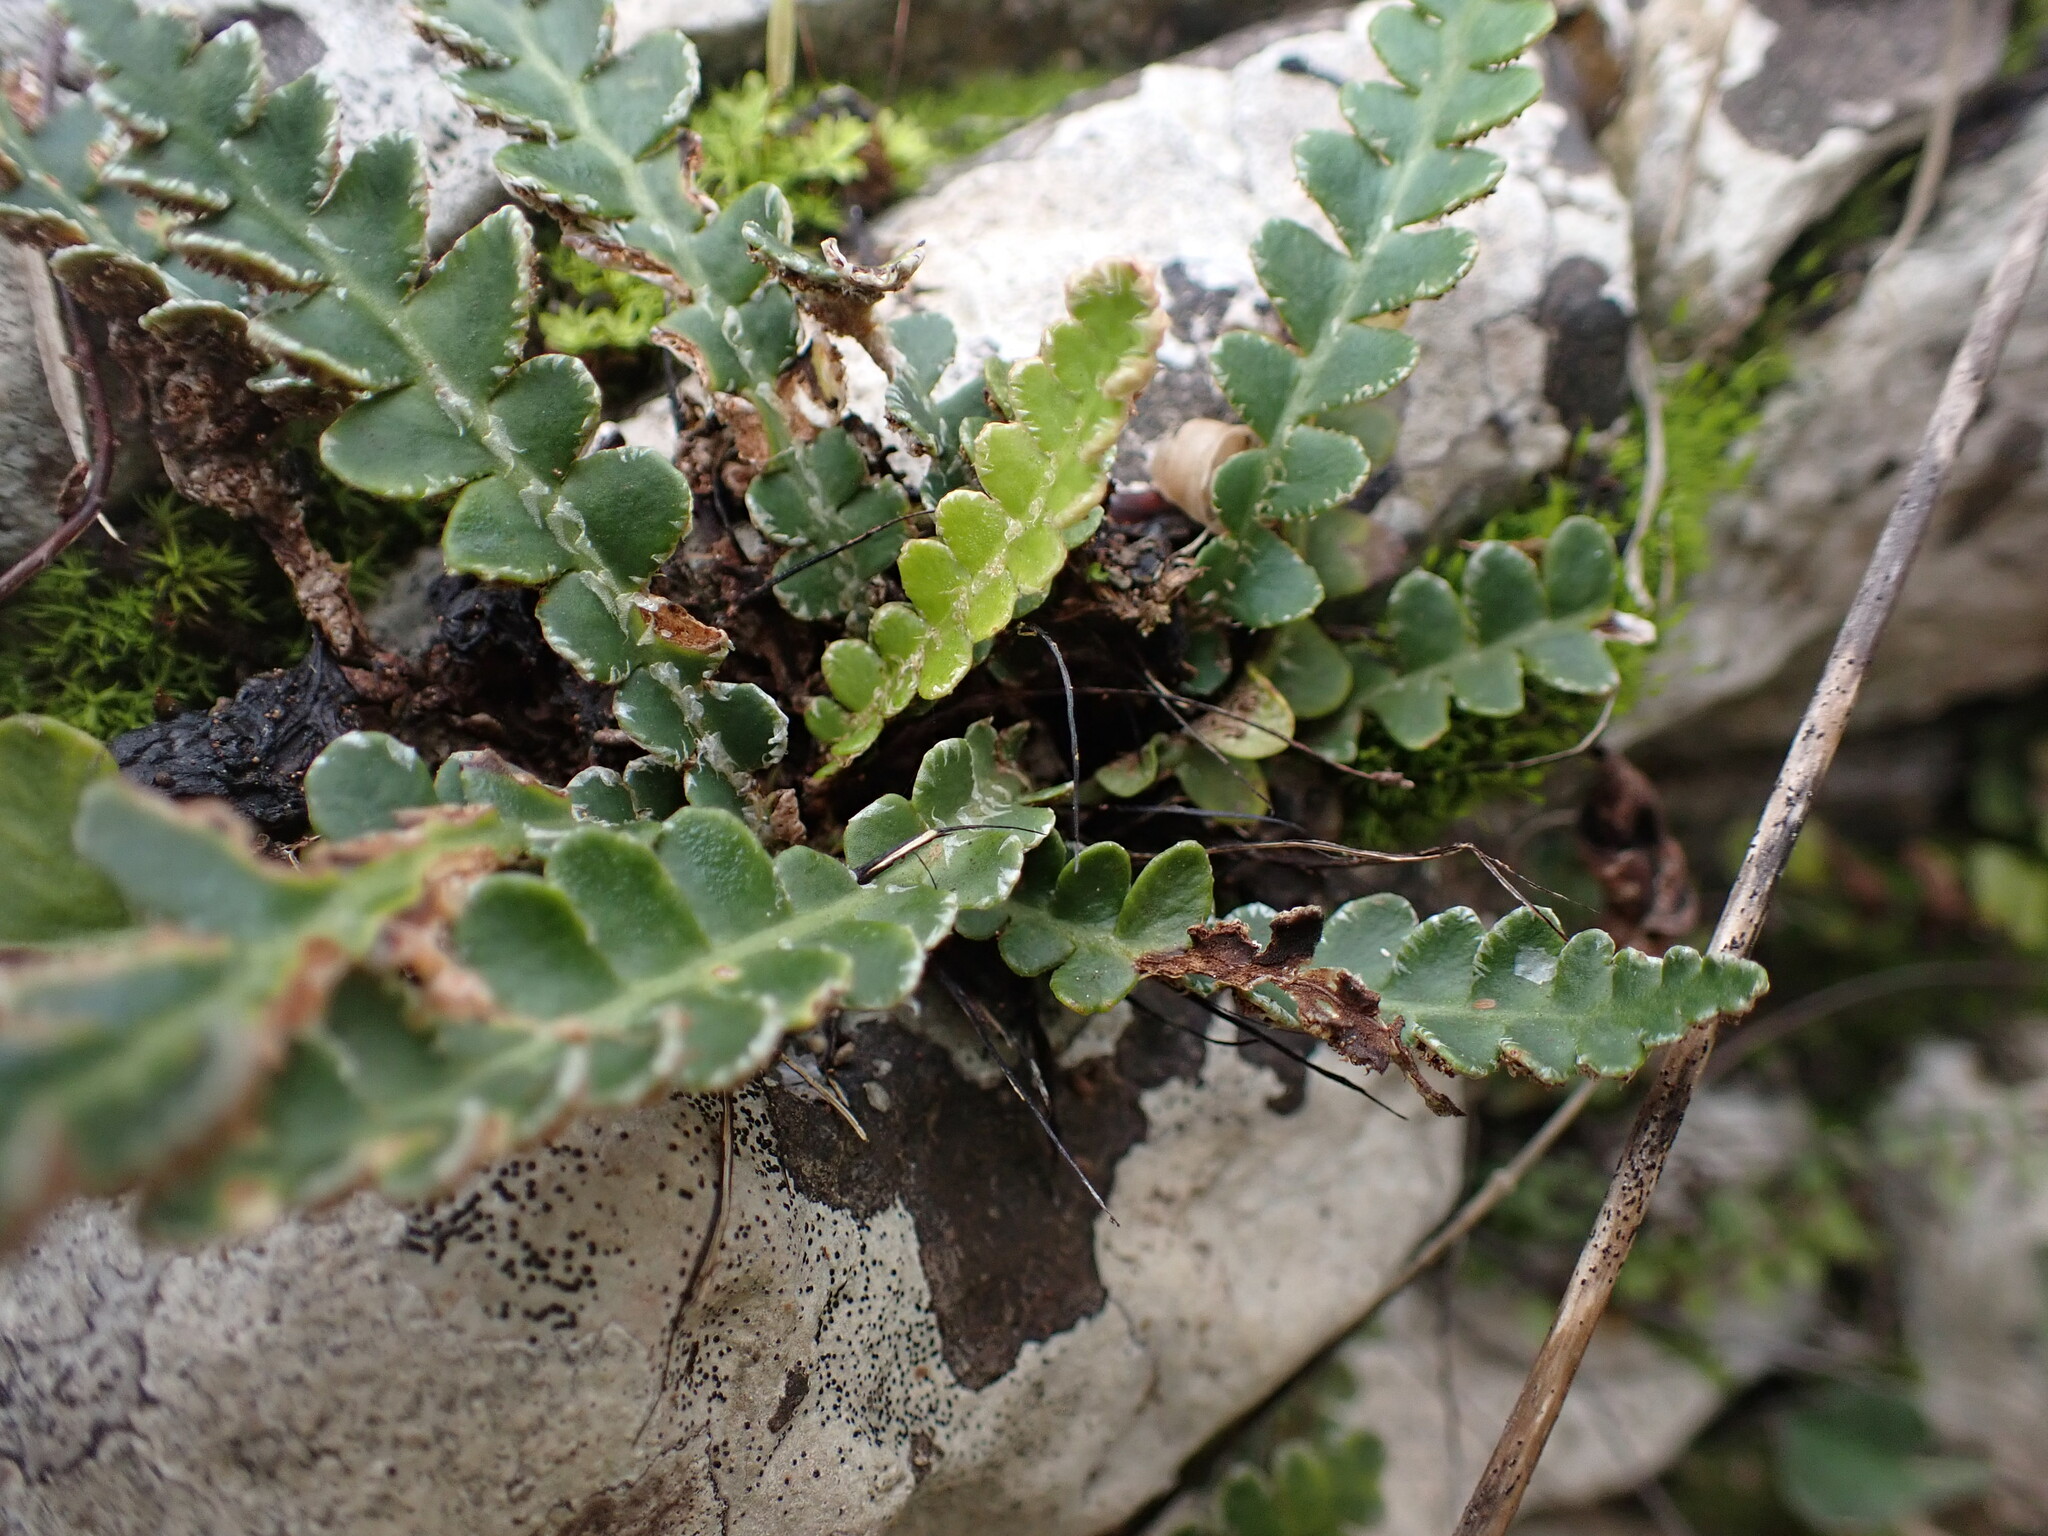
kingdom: Plantae
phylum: Tracheophyta
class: Polypodiopsida
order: Polypodiales
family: Aspleniaceae
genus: Asplenium
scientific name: Asplenium ceterach
